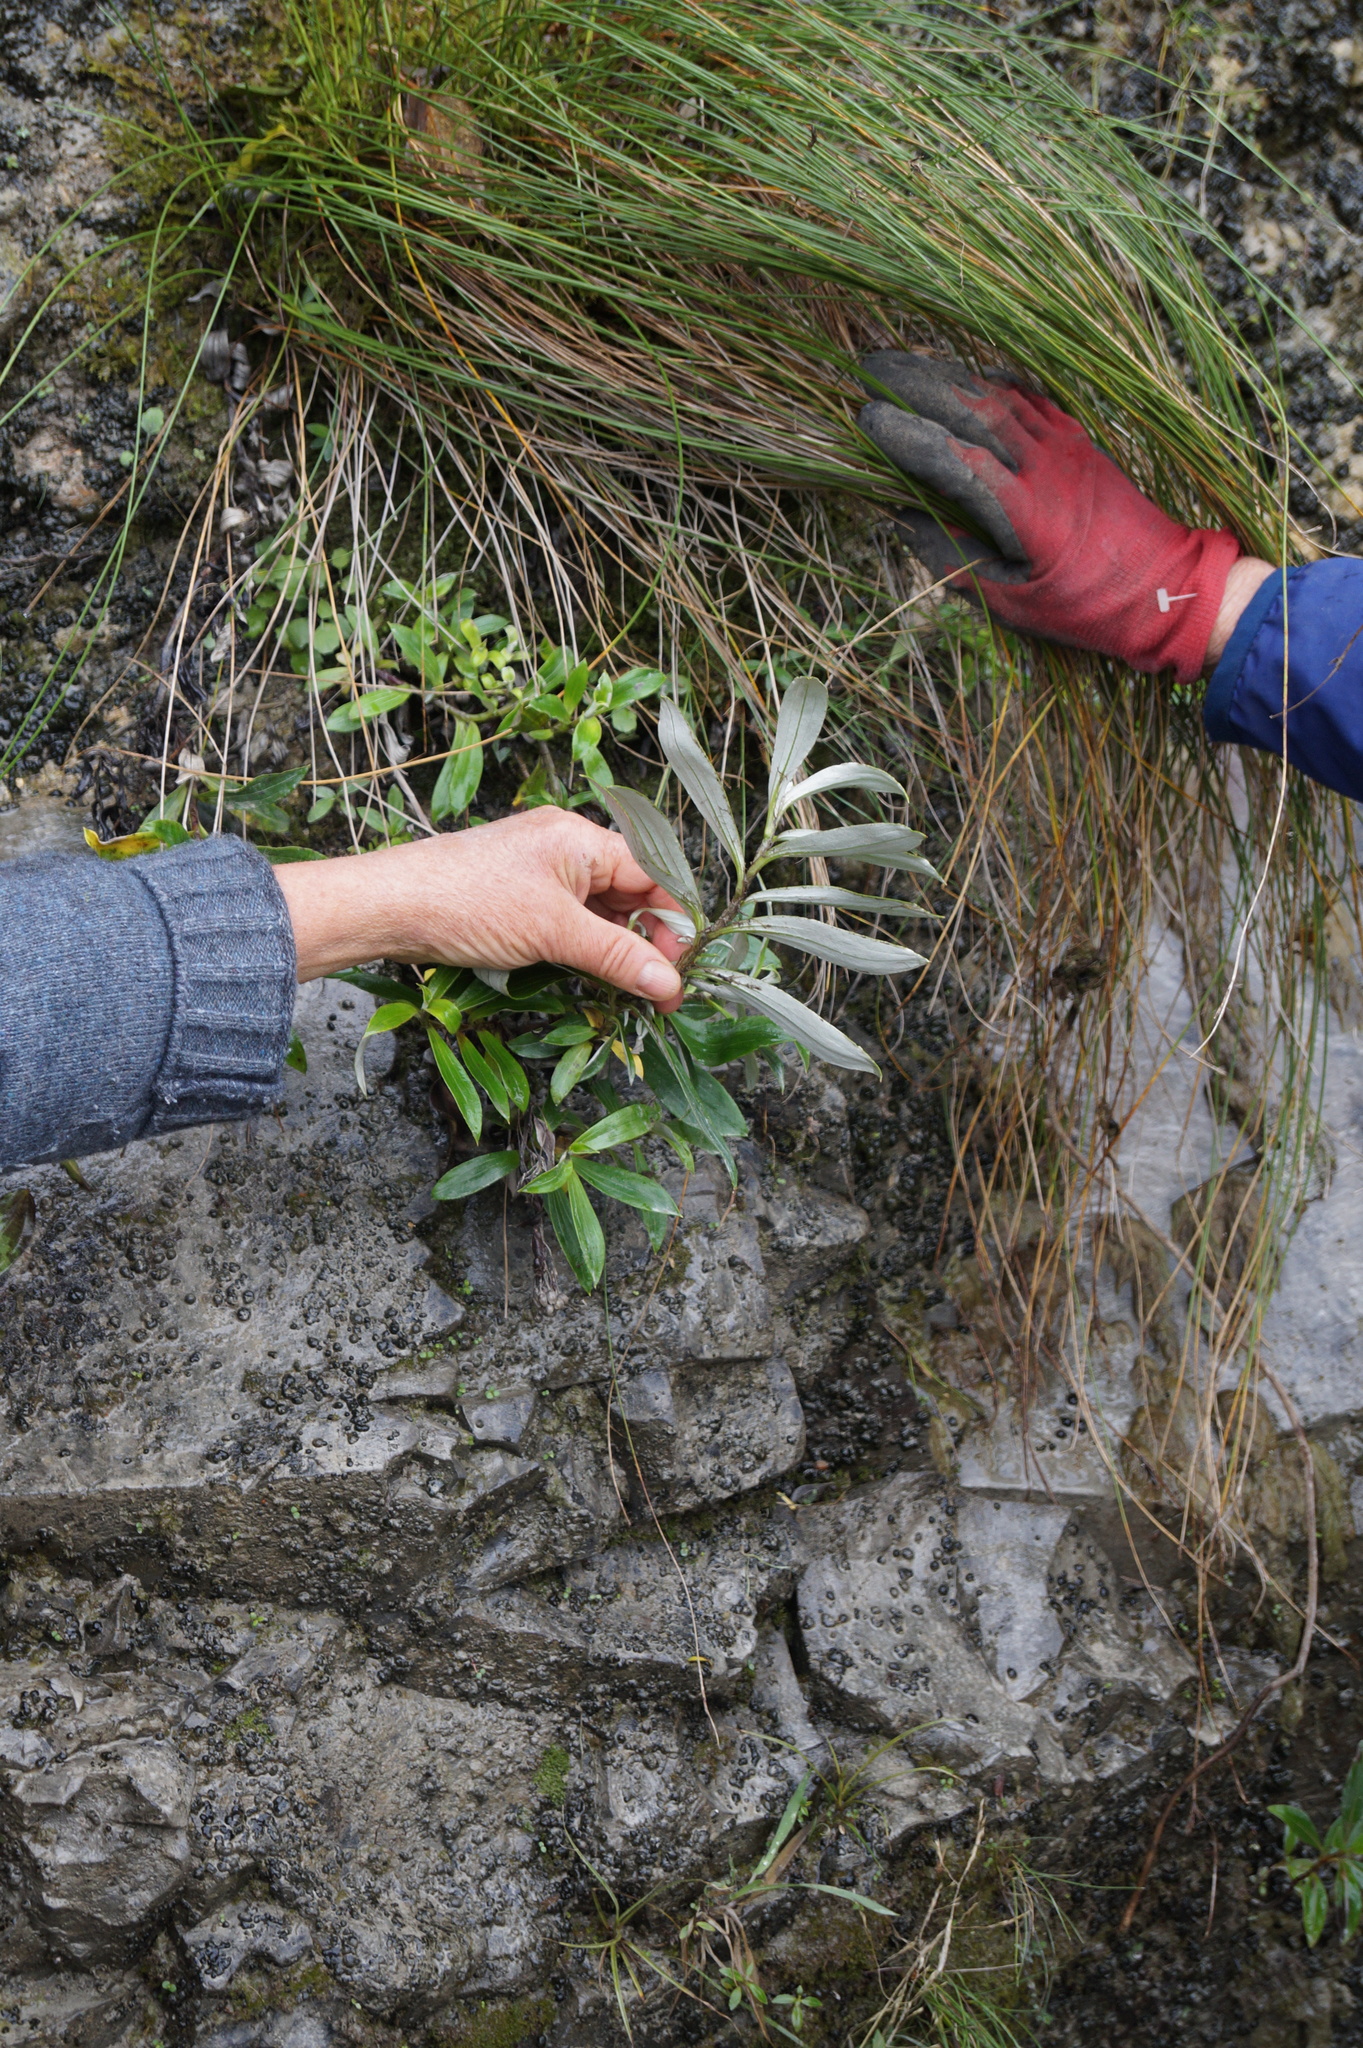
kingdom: Plantae
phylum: Tracheophyta
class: Magnoliopsida
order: Asterales
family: Asteraceae
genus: Anaphalioides
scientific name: Anaphalioides trinervis
